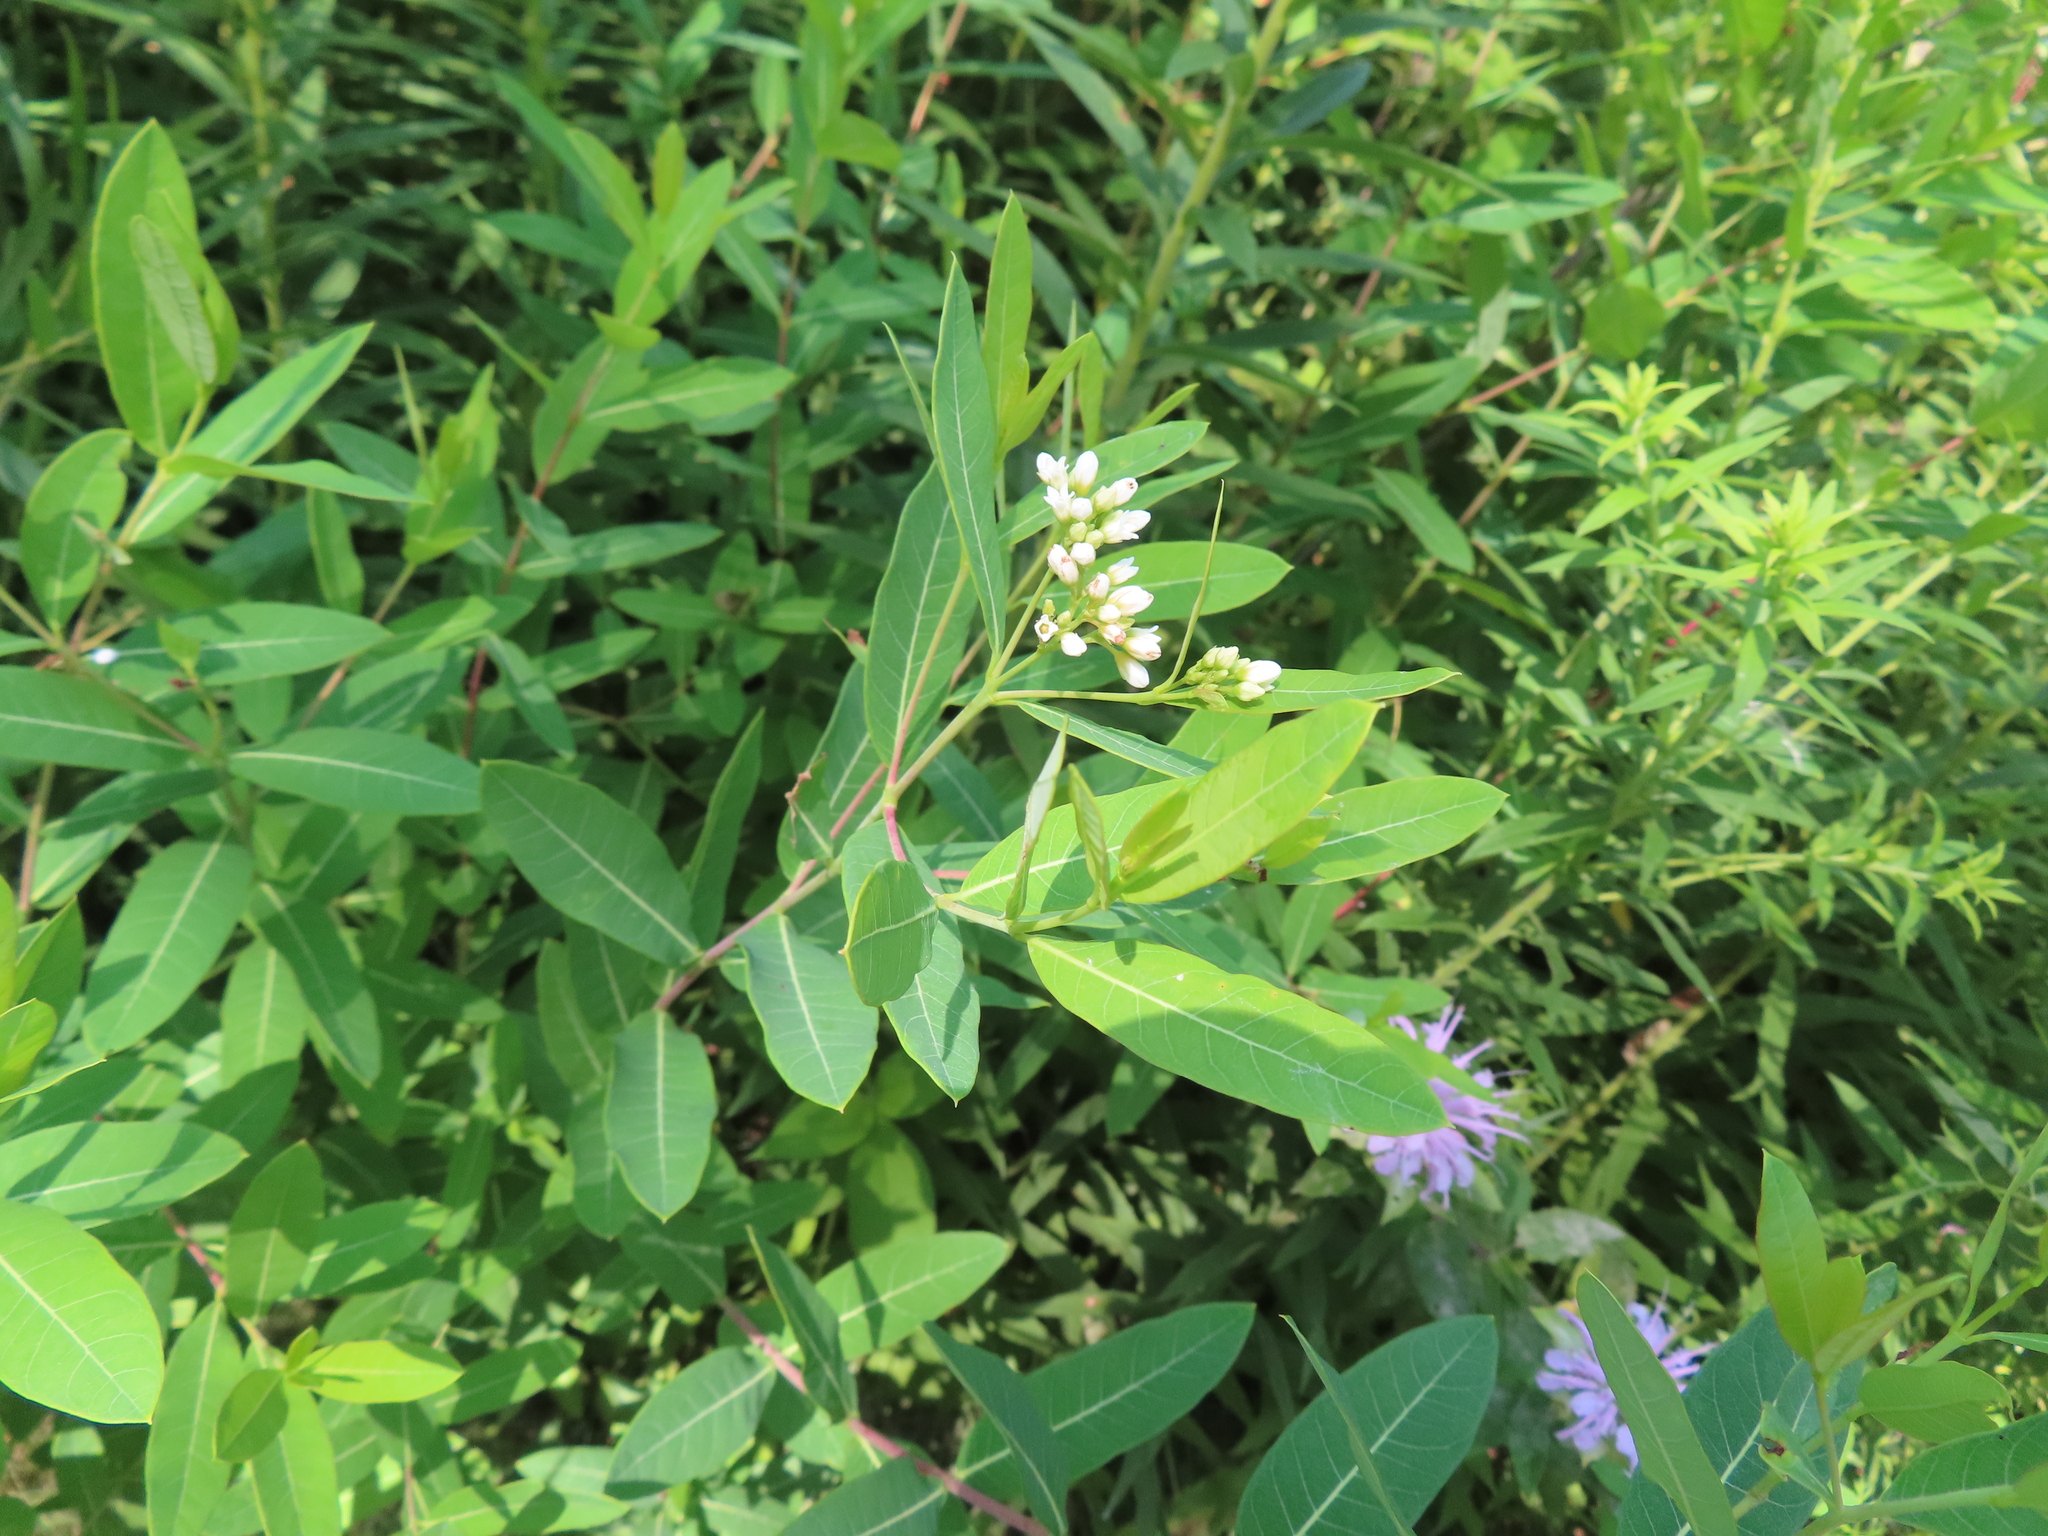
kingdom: Plantae
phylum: Tracheophyta
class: Magnoliopsida
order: Gentianales
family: Apocynaceae
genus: Apocynum
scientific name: Apocynum cannabinum
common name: Hemp dogbane
